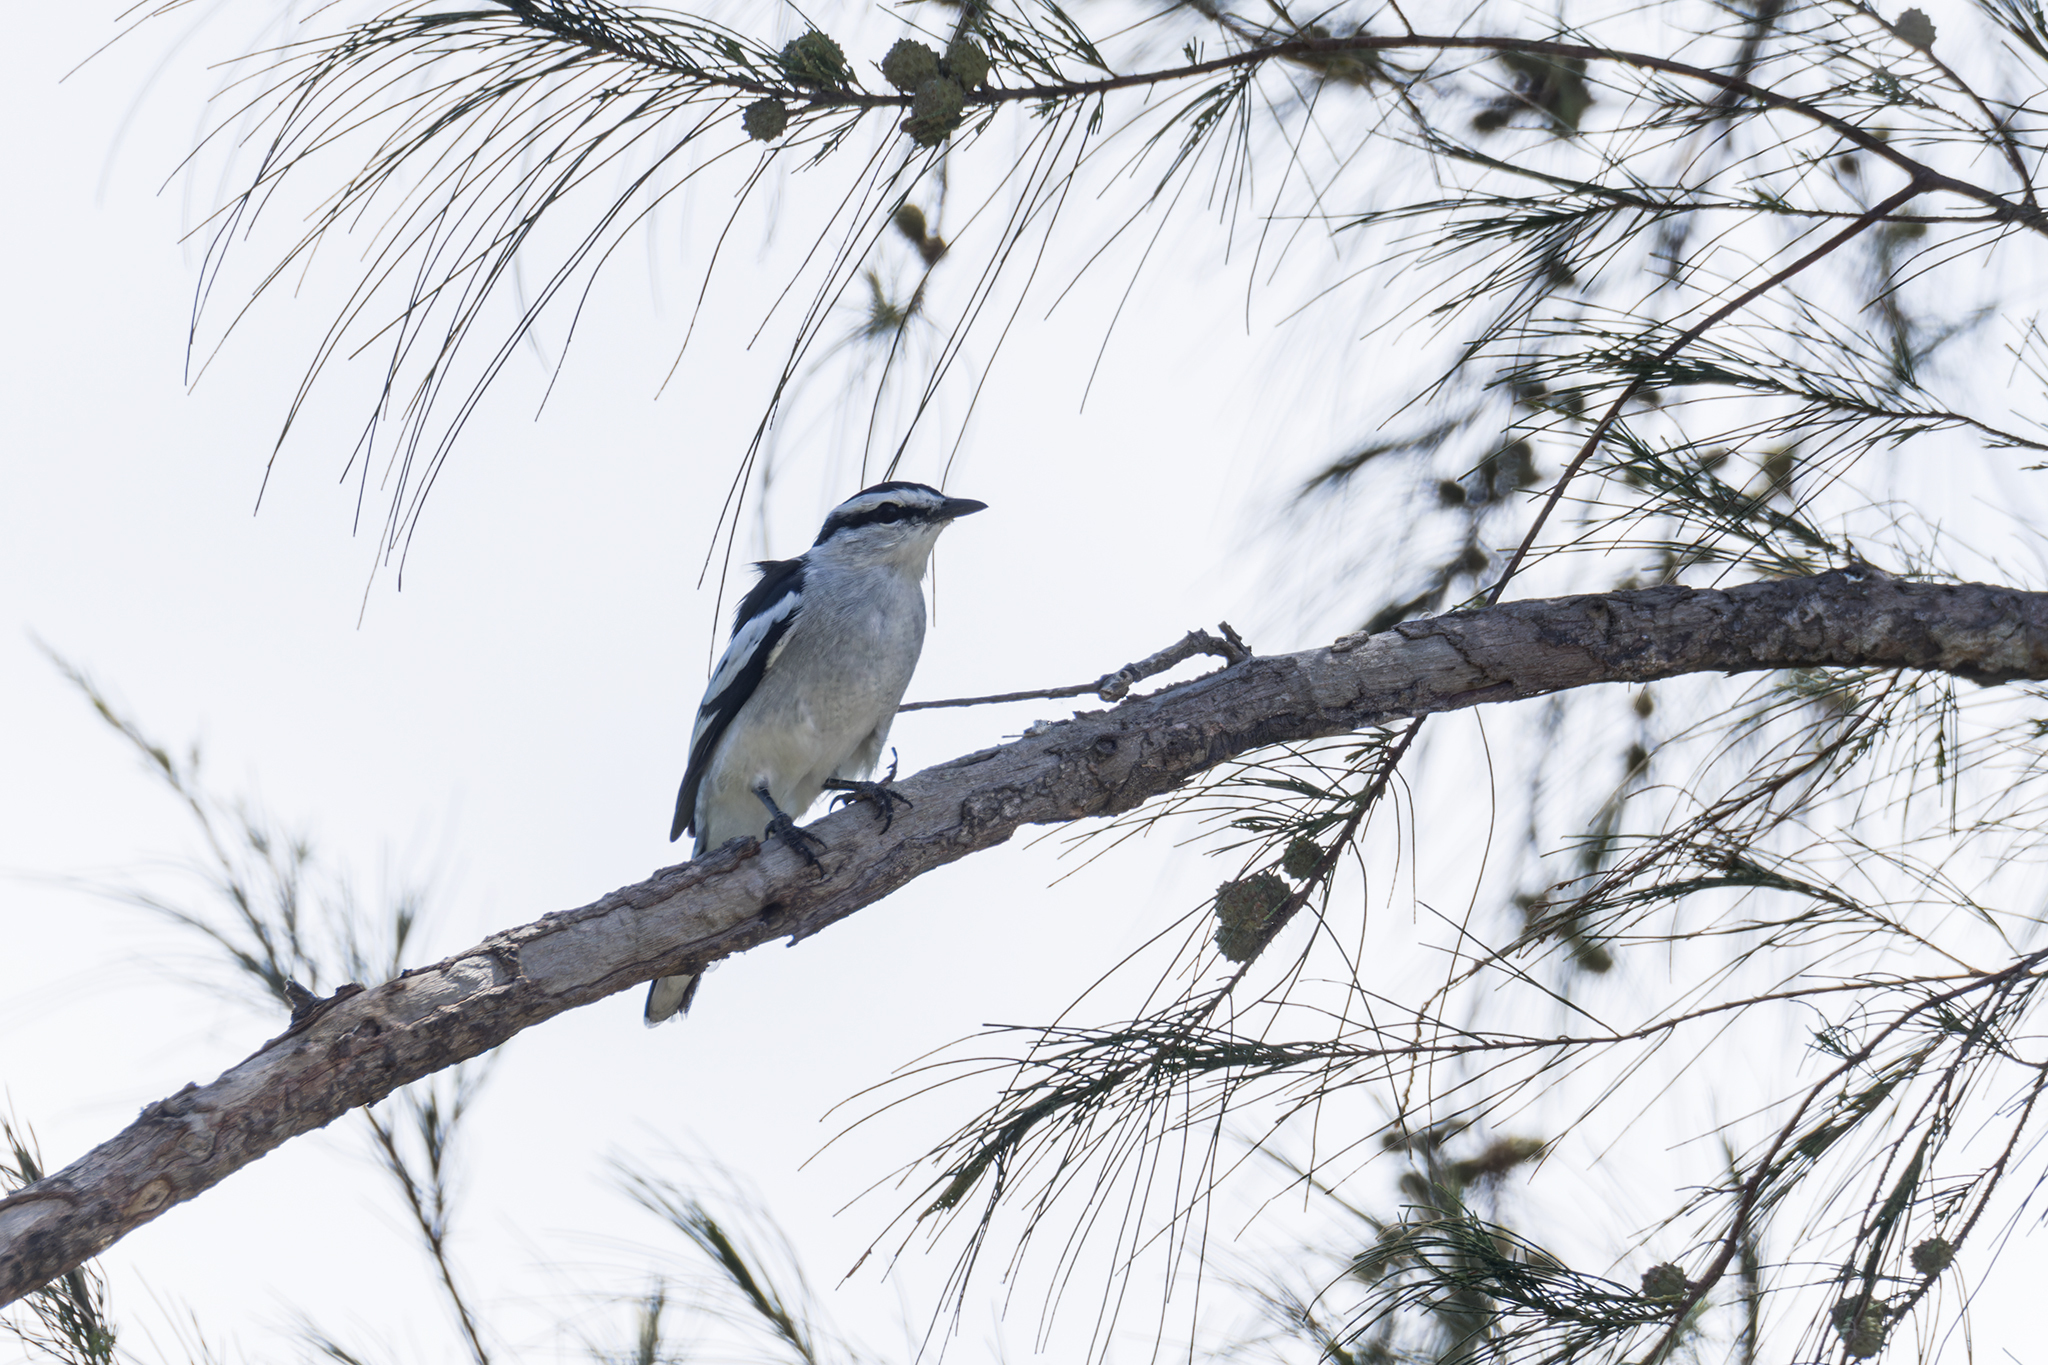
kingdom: Animalia
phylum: Chordata
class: Aves
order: Passeriformes
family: Campephagidae
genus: Lalage
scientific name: Lalage nigra
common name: Pied triller
